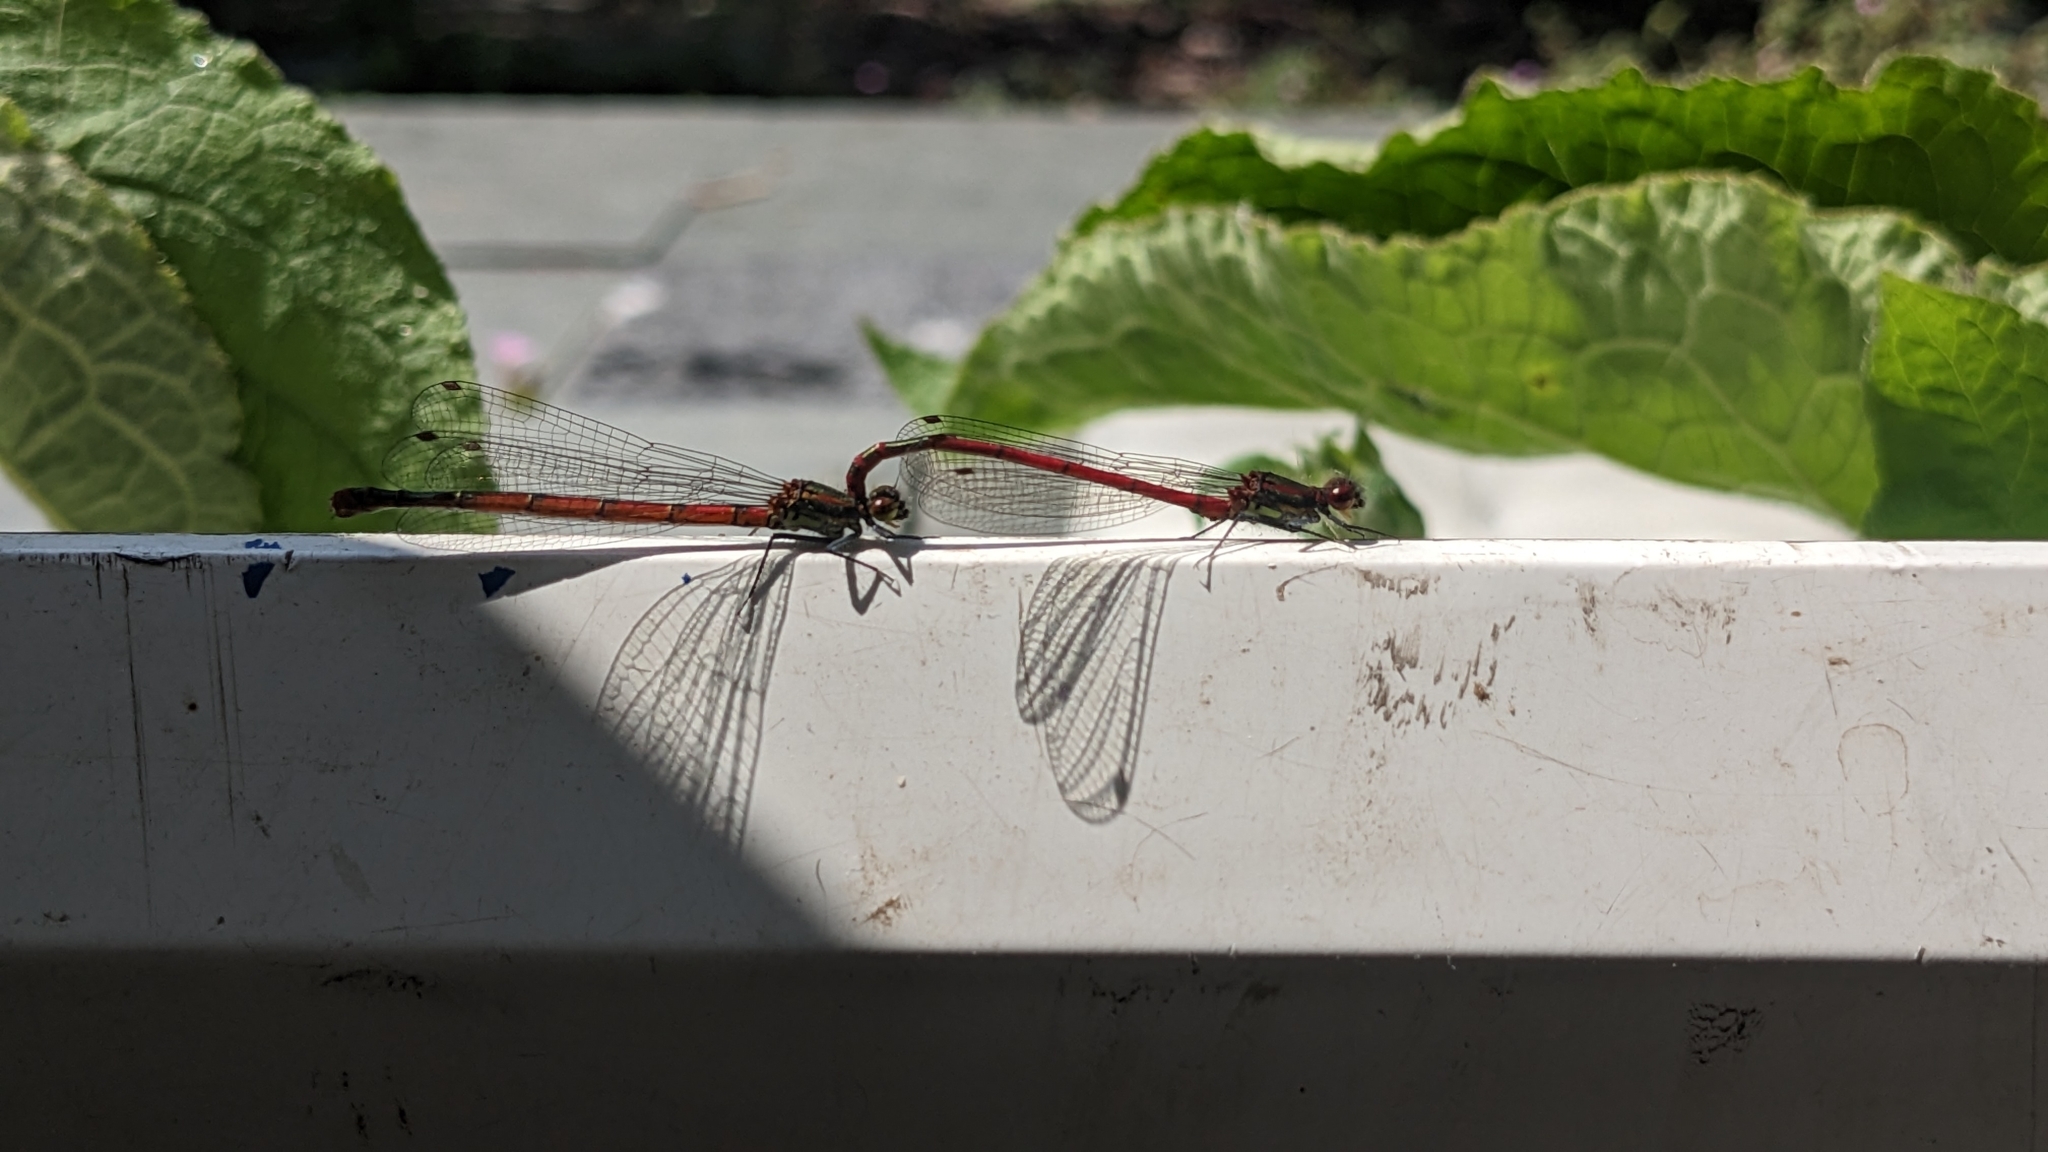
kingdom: Animalia
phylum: Arthropoda
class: Insecta
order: Odonata
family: Coenagrionidae
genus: Pyrrhosoma
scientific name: Pyrrhosoma nymphula
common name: Large red damsel
